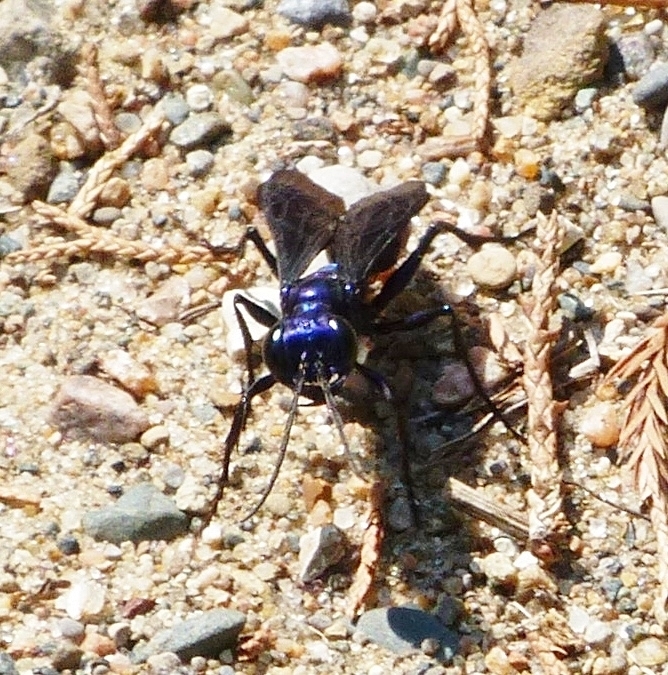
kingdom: Animalia
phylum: Arthropoda
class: Insecta
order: Hymenoptera
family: Sphecidae
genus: Chlorion
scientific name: Chlorion aerarium
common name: Steel-blue cricket hunter
